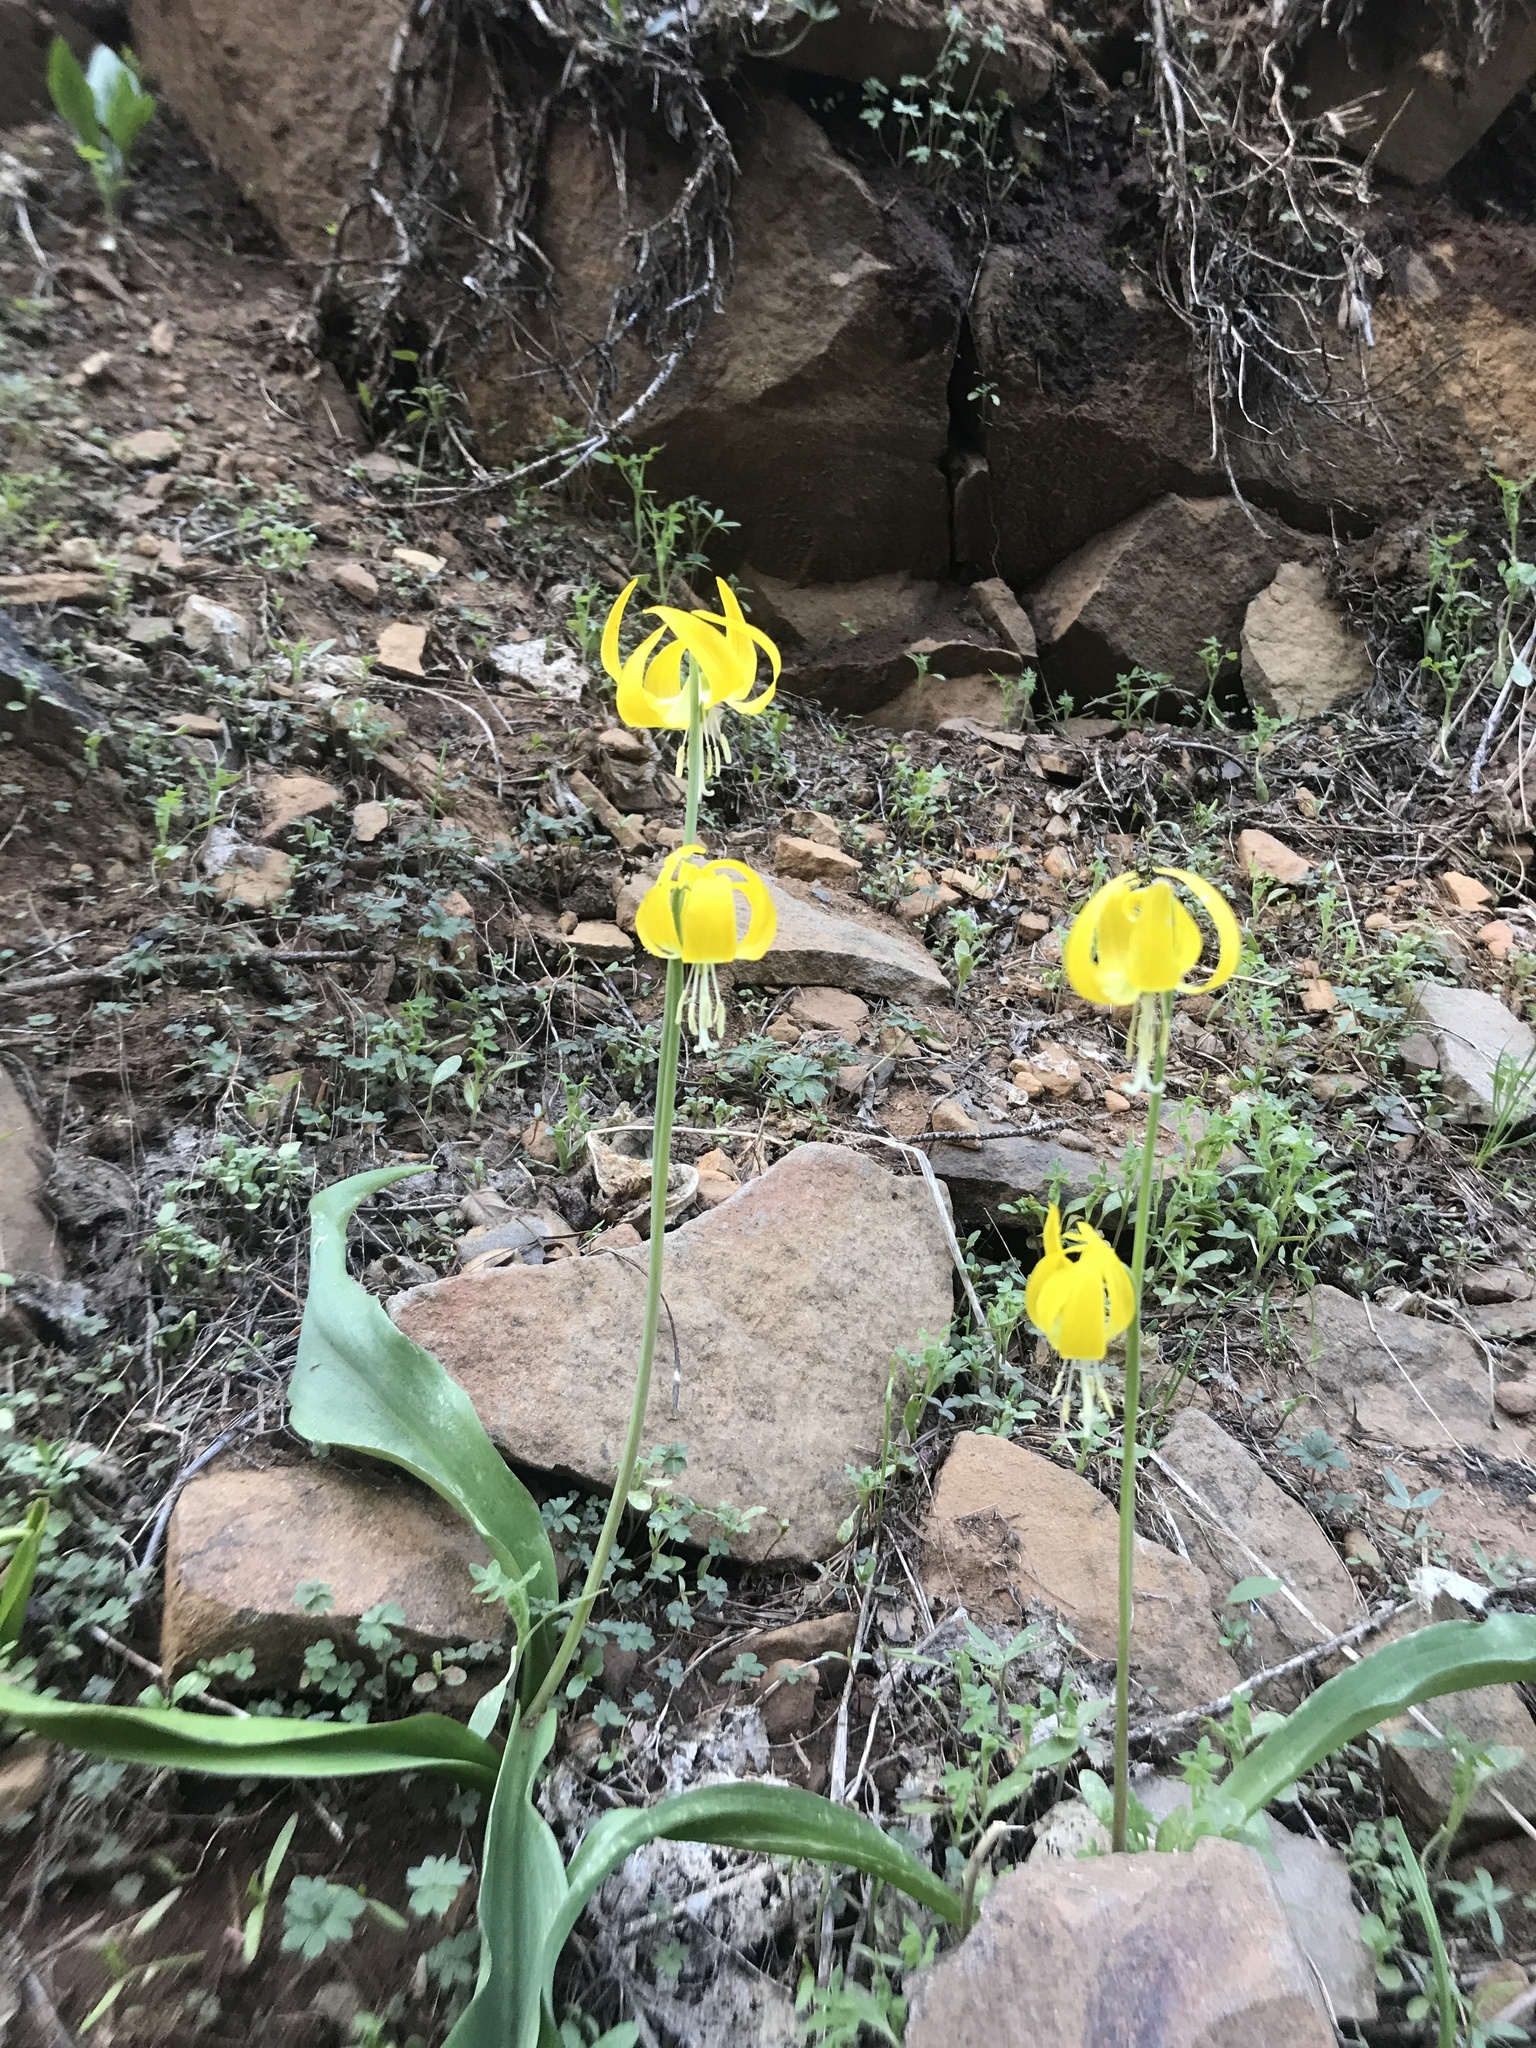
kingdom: Plantae
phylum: Tracheophyta
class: Liliopsida
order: Liliales
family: Liliaceae
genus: Erythronium
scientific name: Erythronium grandiflorum
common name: Avalanche-lily
